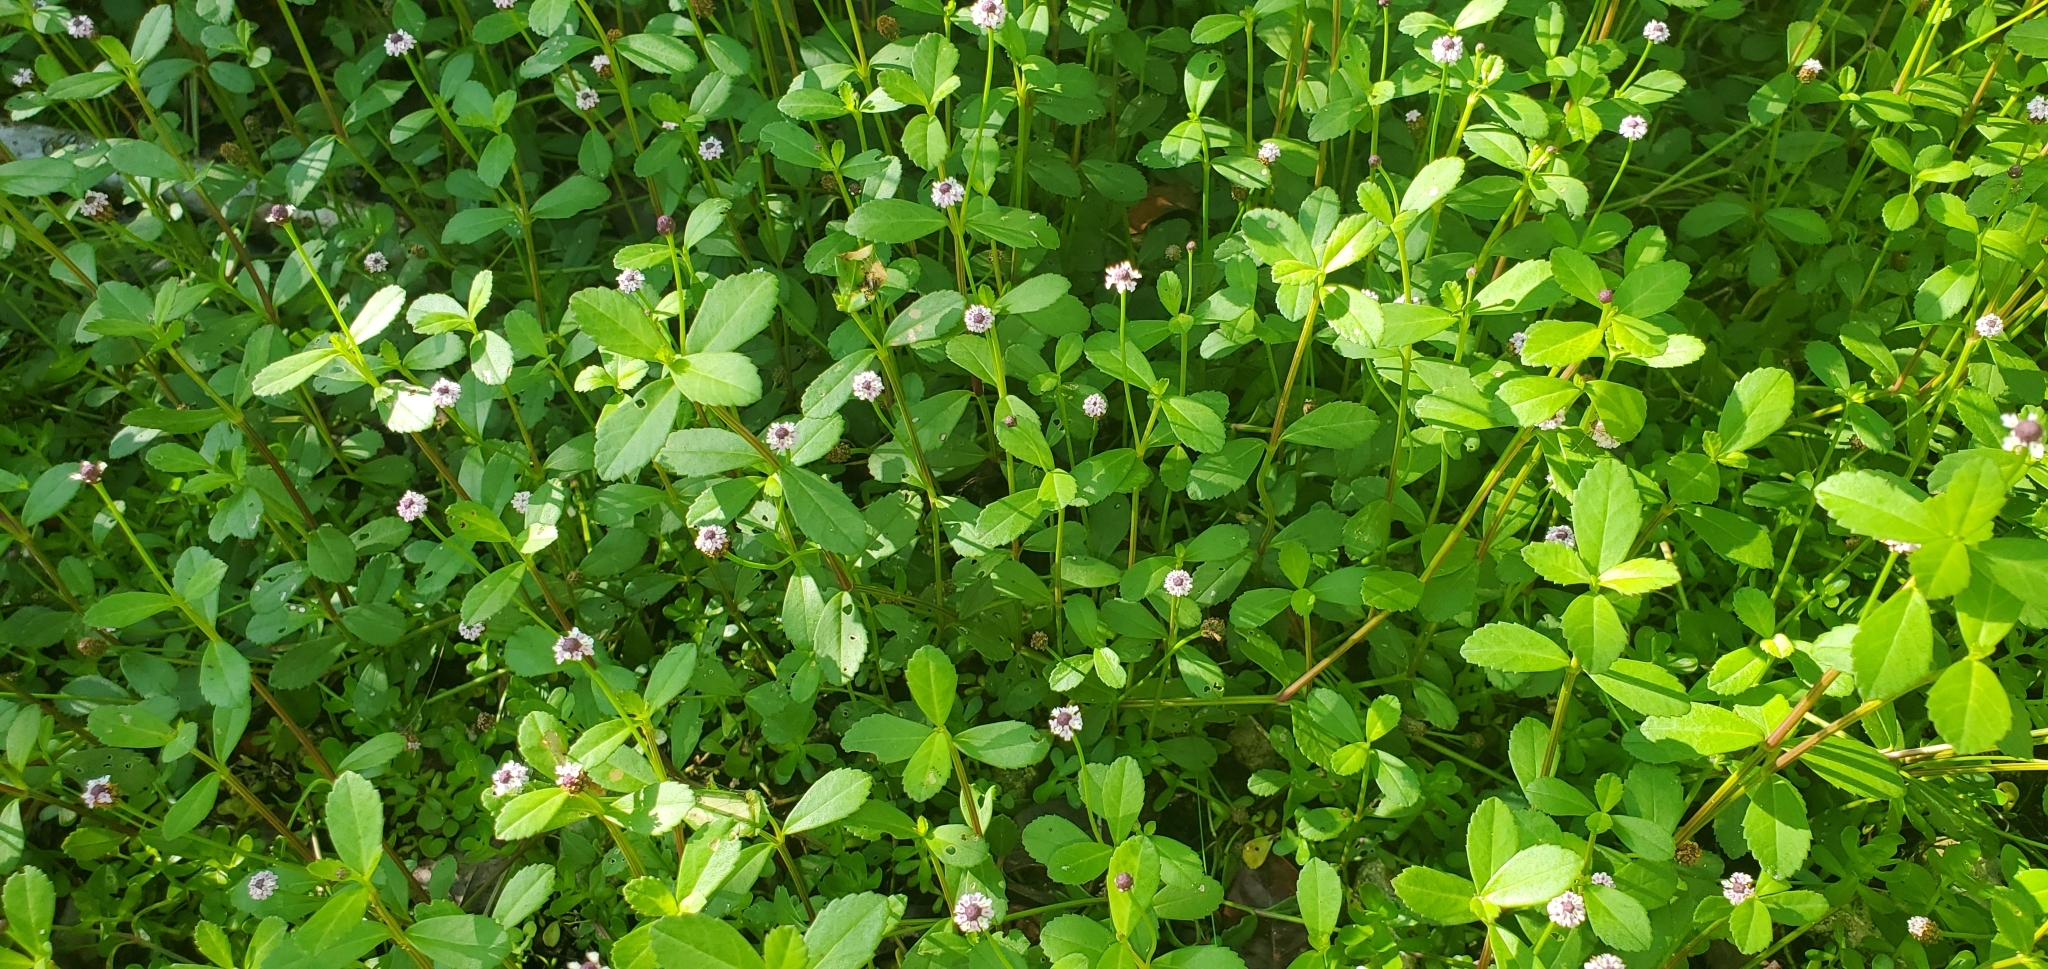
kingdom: Plantae
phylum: Tracheophyta
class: Magnoliopsida
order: Lamiales
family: Verbenaceae
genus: Phyla
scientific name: Phyla nodiflora
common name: Frogfruit
